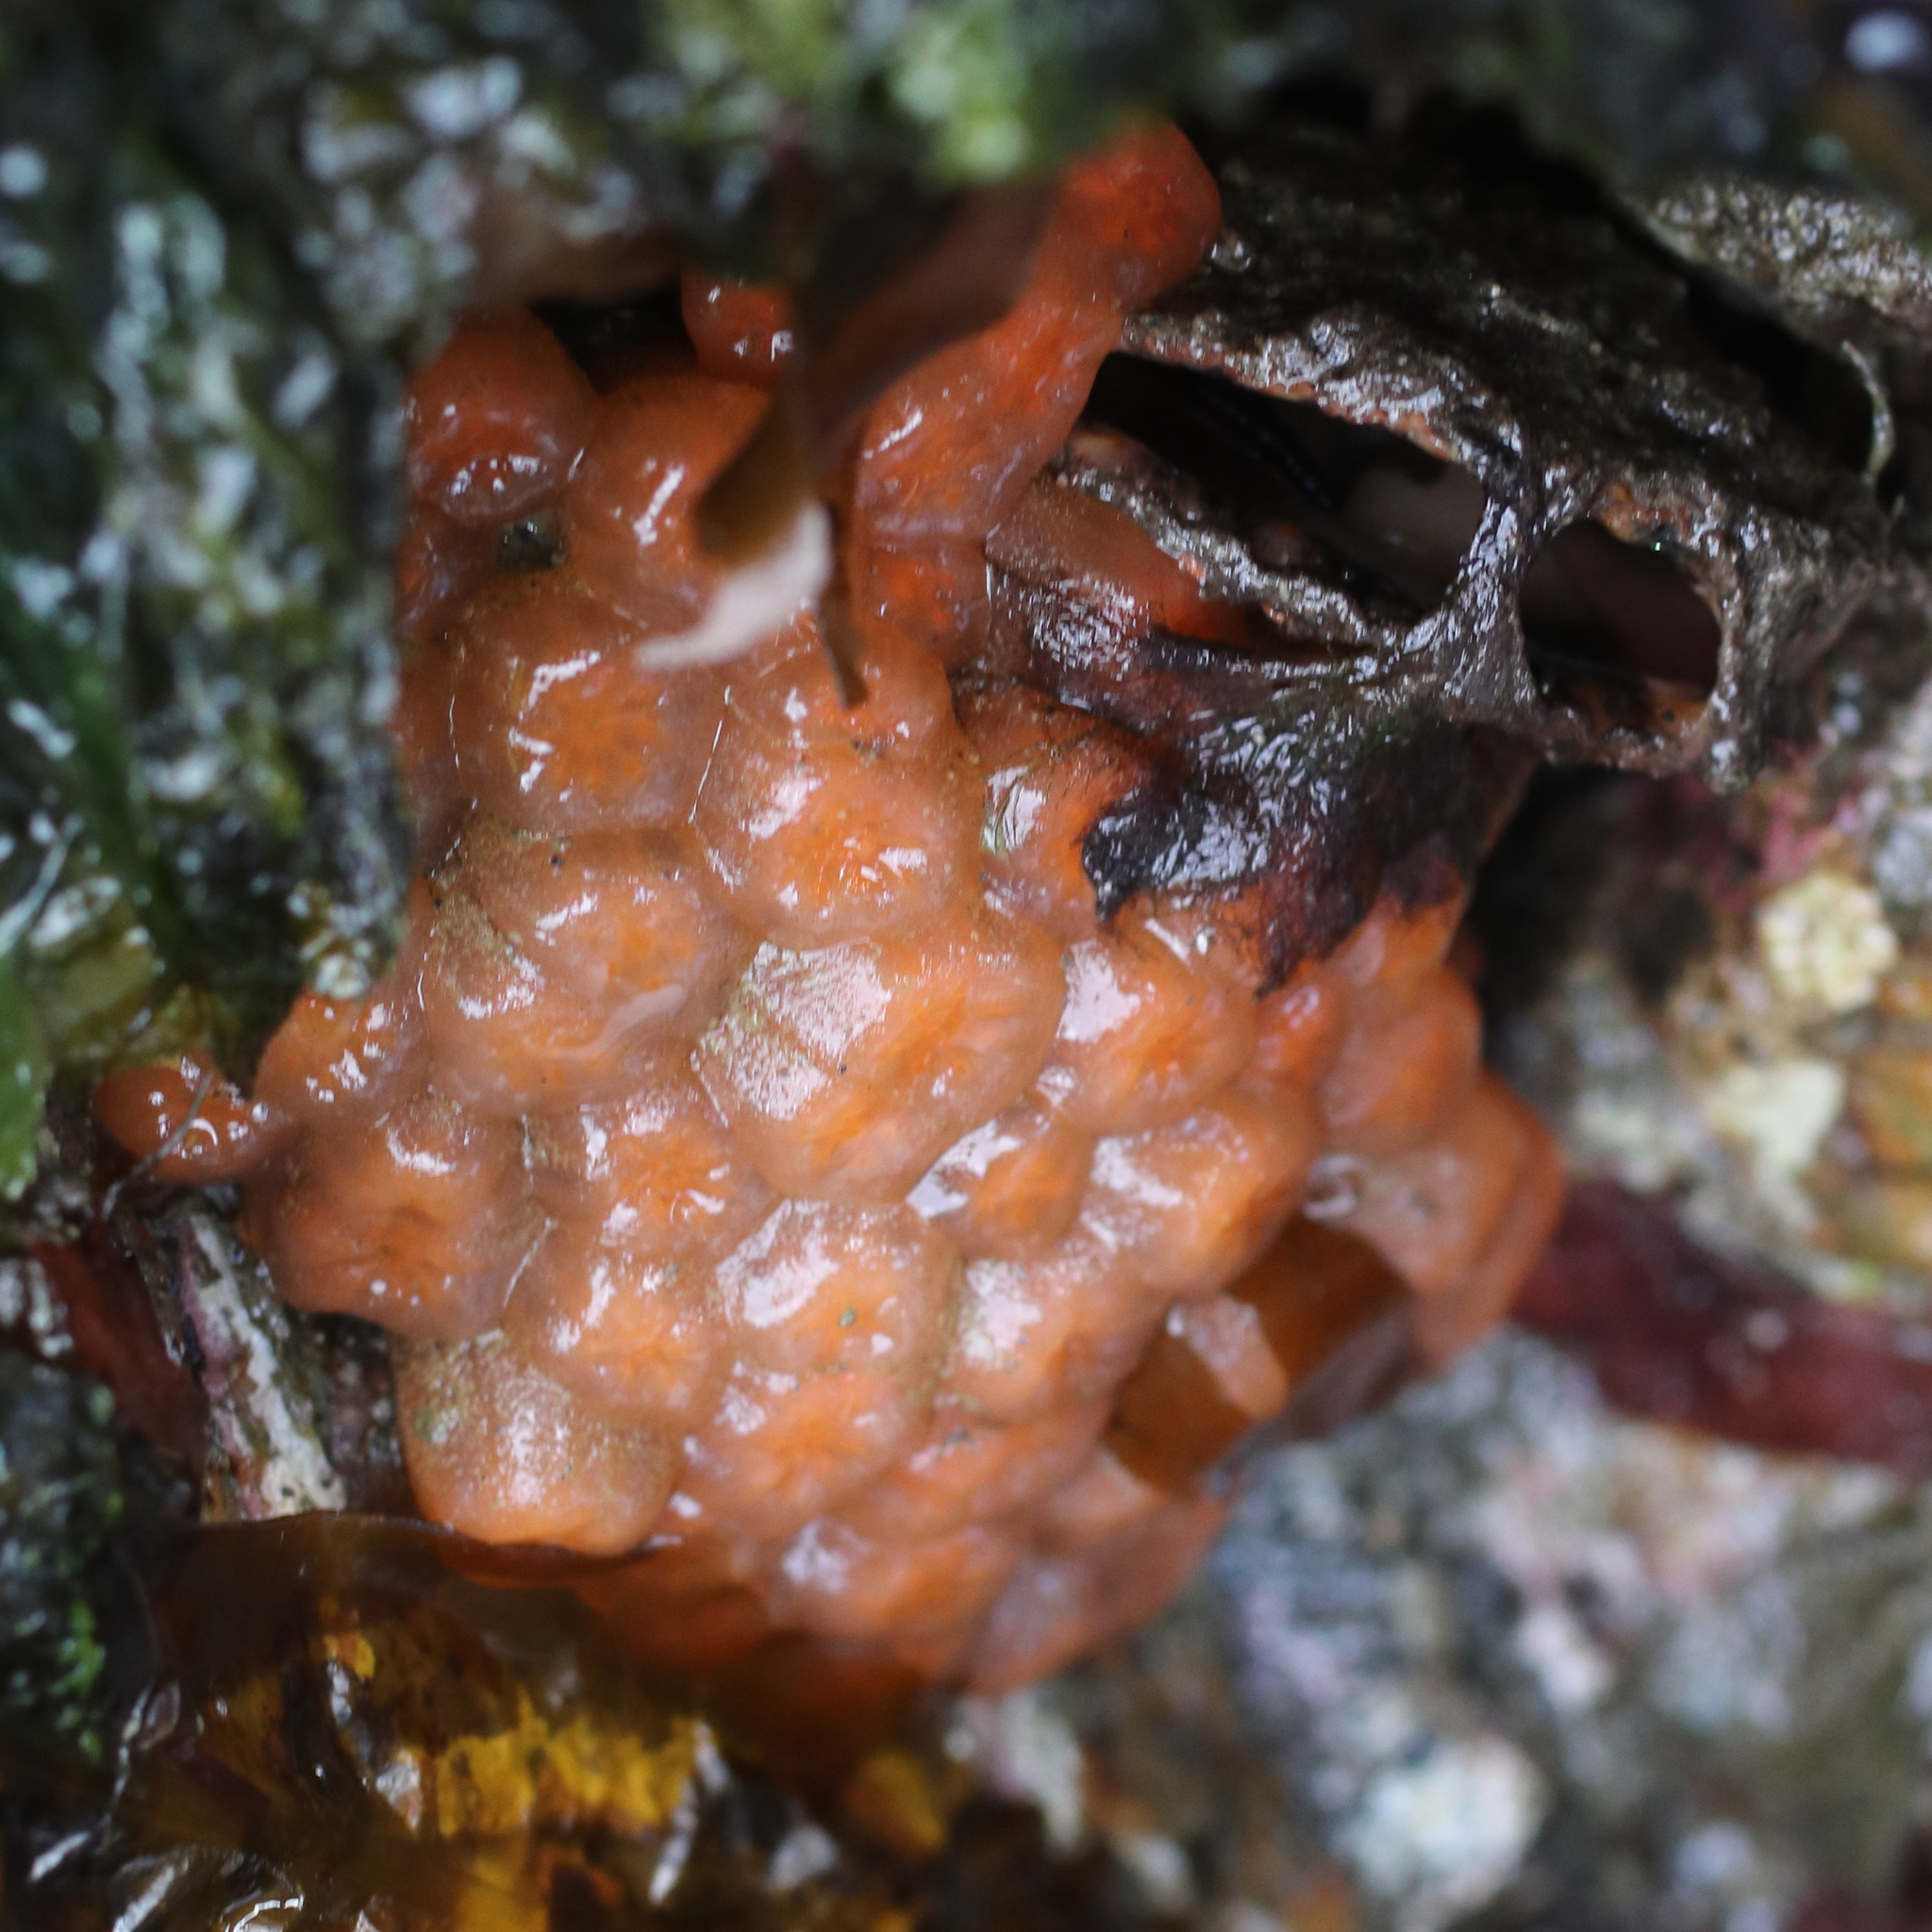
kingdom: Animalia
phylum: Chordata
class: Ascidiacea
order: Aplousobranchia
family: Polyclinidae
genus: Aplidium
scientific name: Aplidium coei
